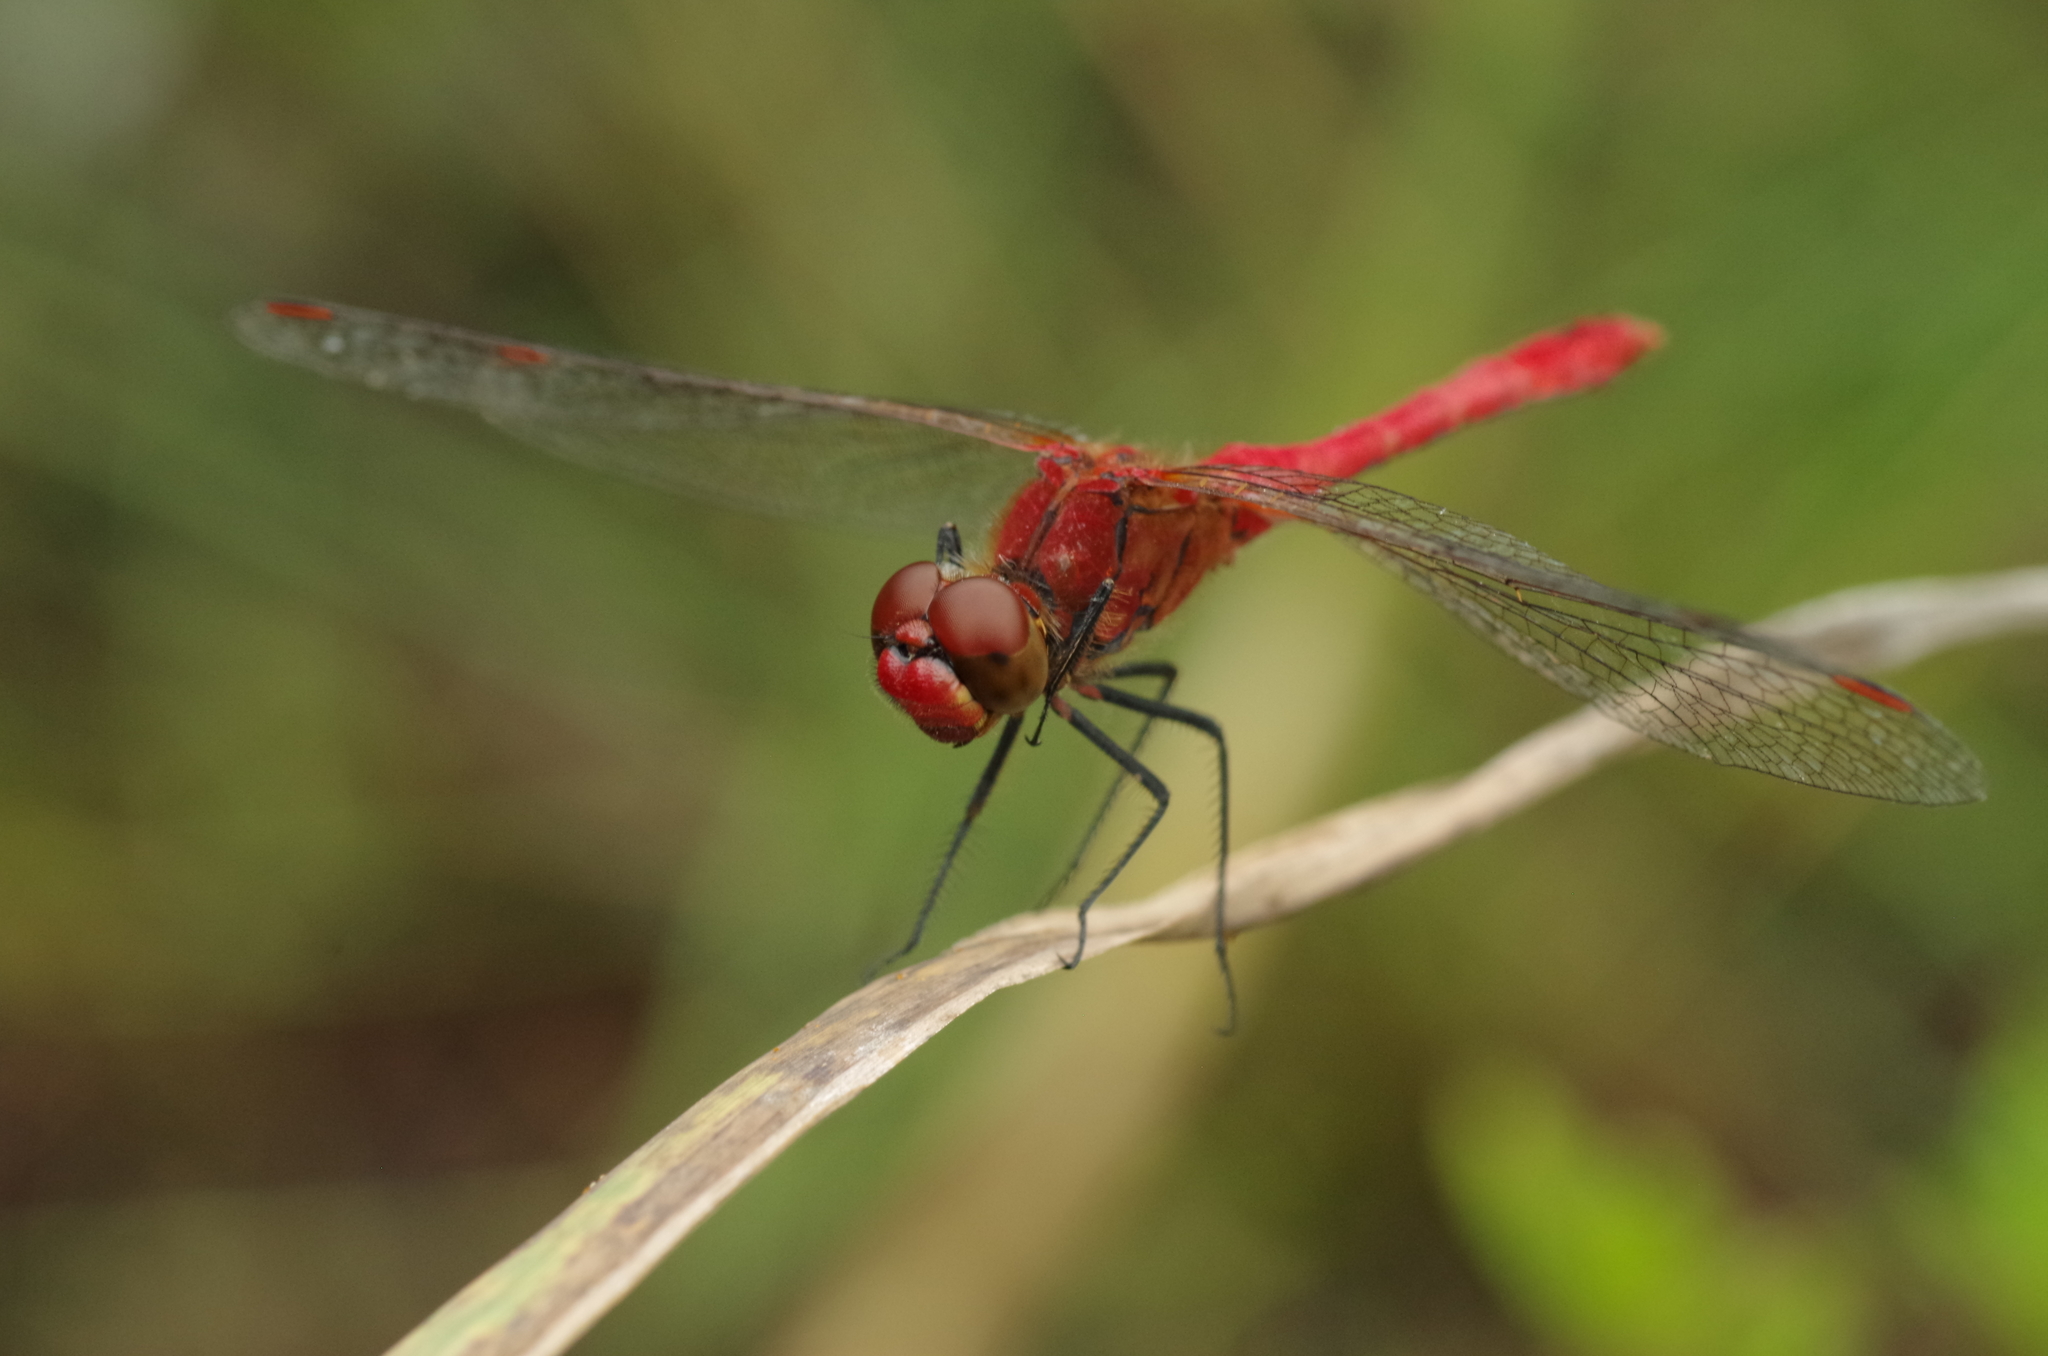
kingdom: Animalia
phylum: Arthropoda
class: Insecta
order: Odonata
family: Libellulidae
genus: Sympetrum
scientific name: Sympetrum sanguineum
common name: Ruddy darter
